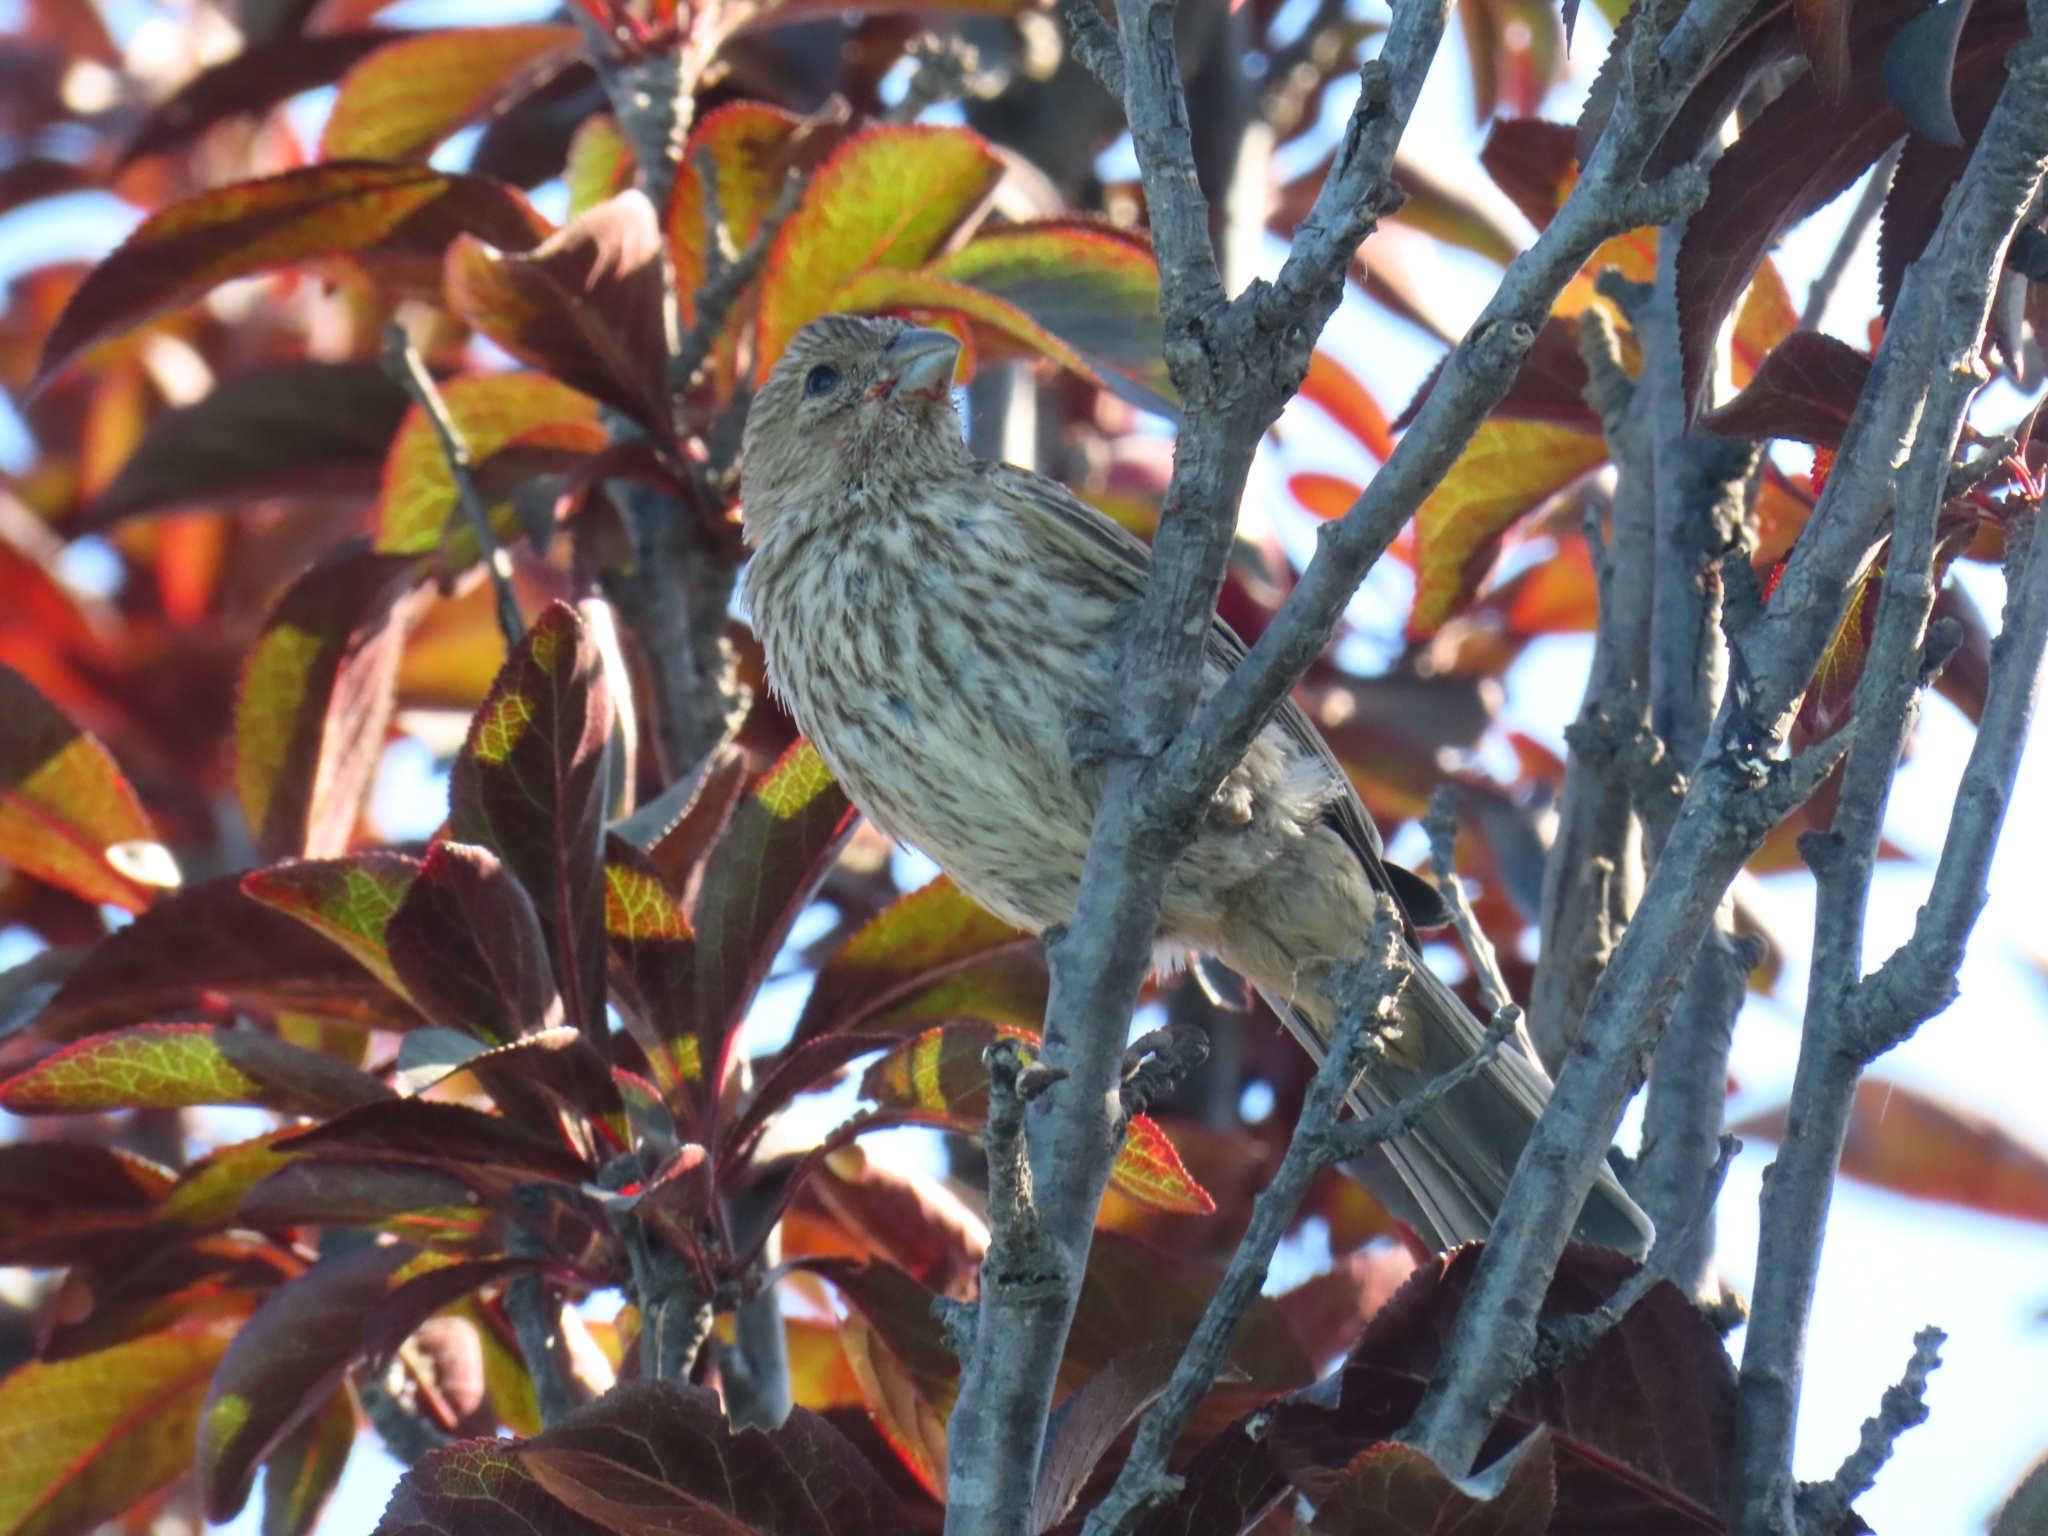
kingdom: Animalia
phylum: Chordata
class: Aves
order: Passeriformes
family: Fringillidae
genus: Haemorhous
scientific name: Haemorhous mexicanus
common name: House finch
